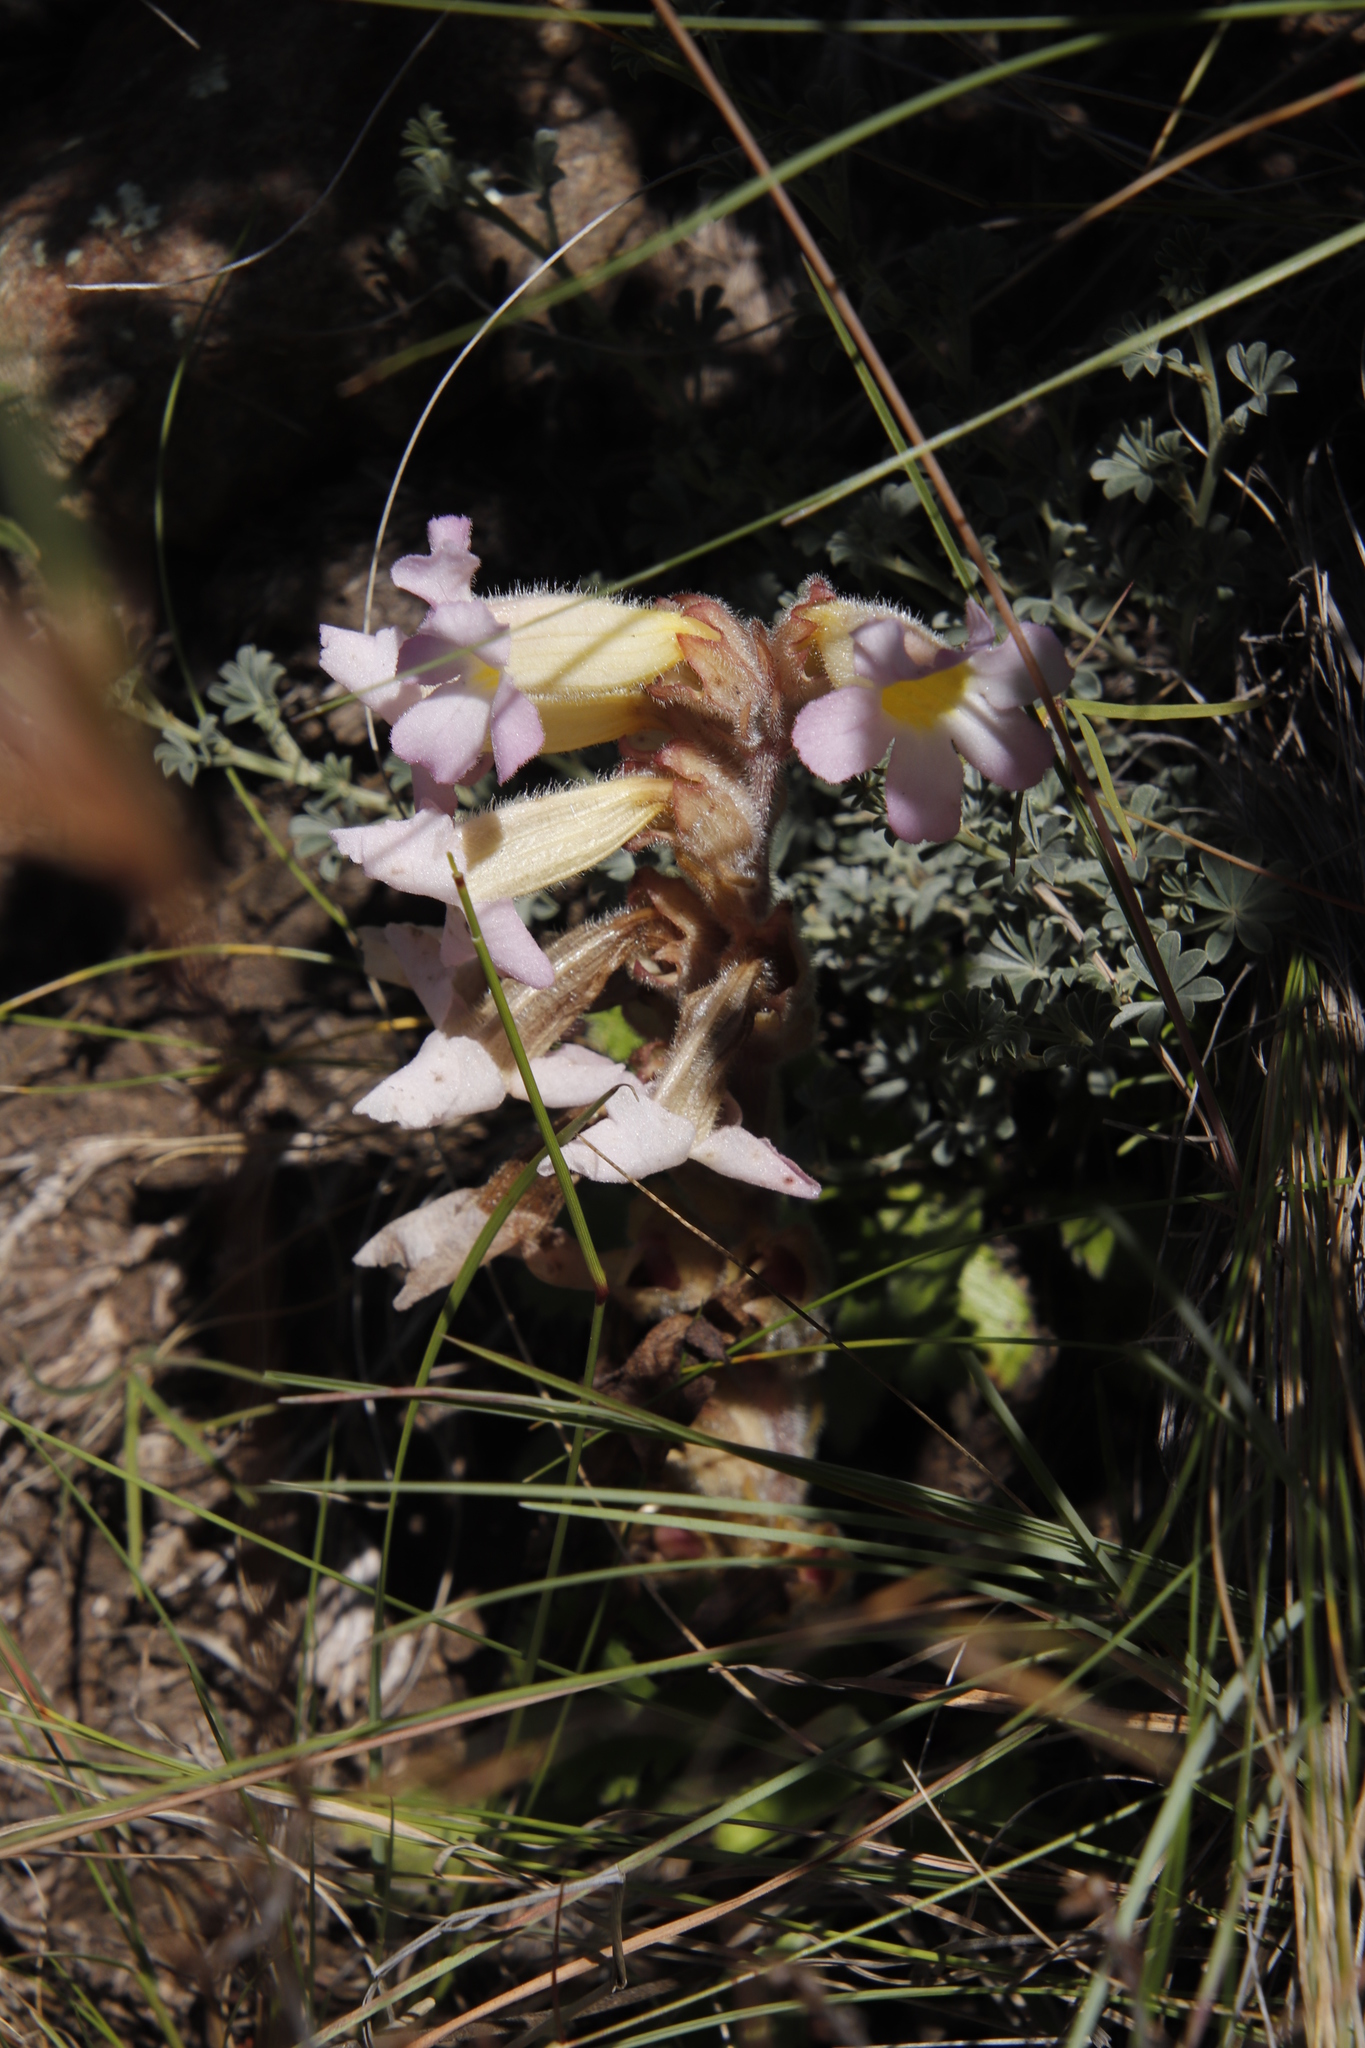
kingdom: Plantae
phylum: Tracheophyta
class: Magnoliopsida
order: Lamiales
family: Orobanchaceae
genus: Harveya
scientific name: Harveya huttonii
